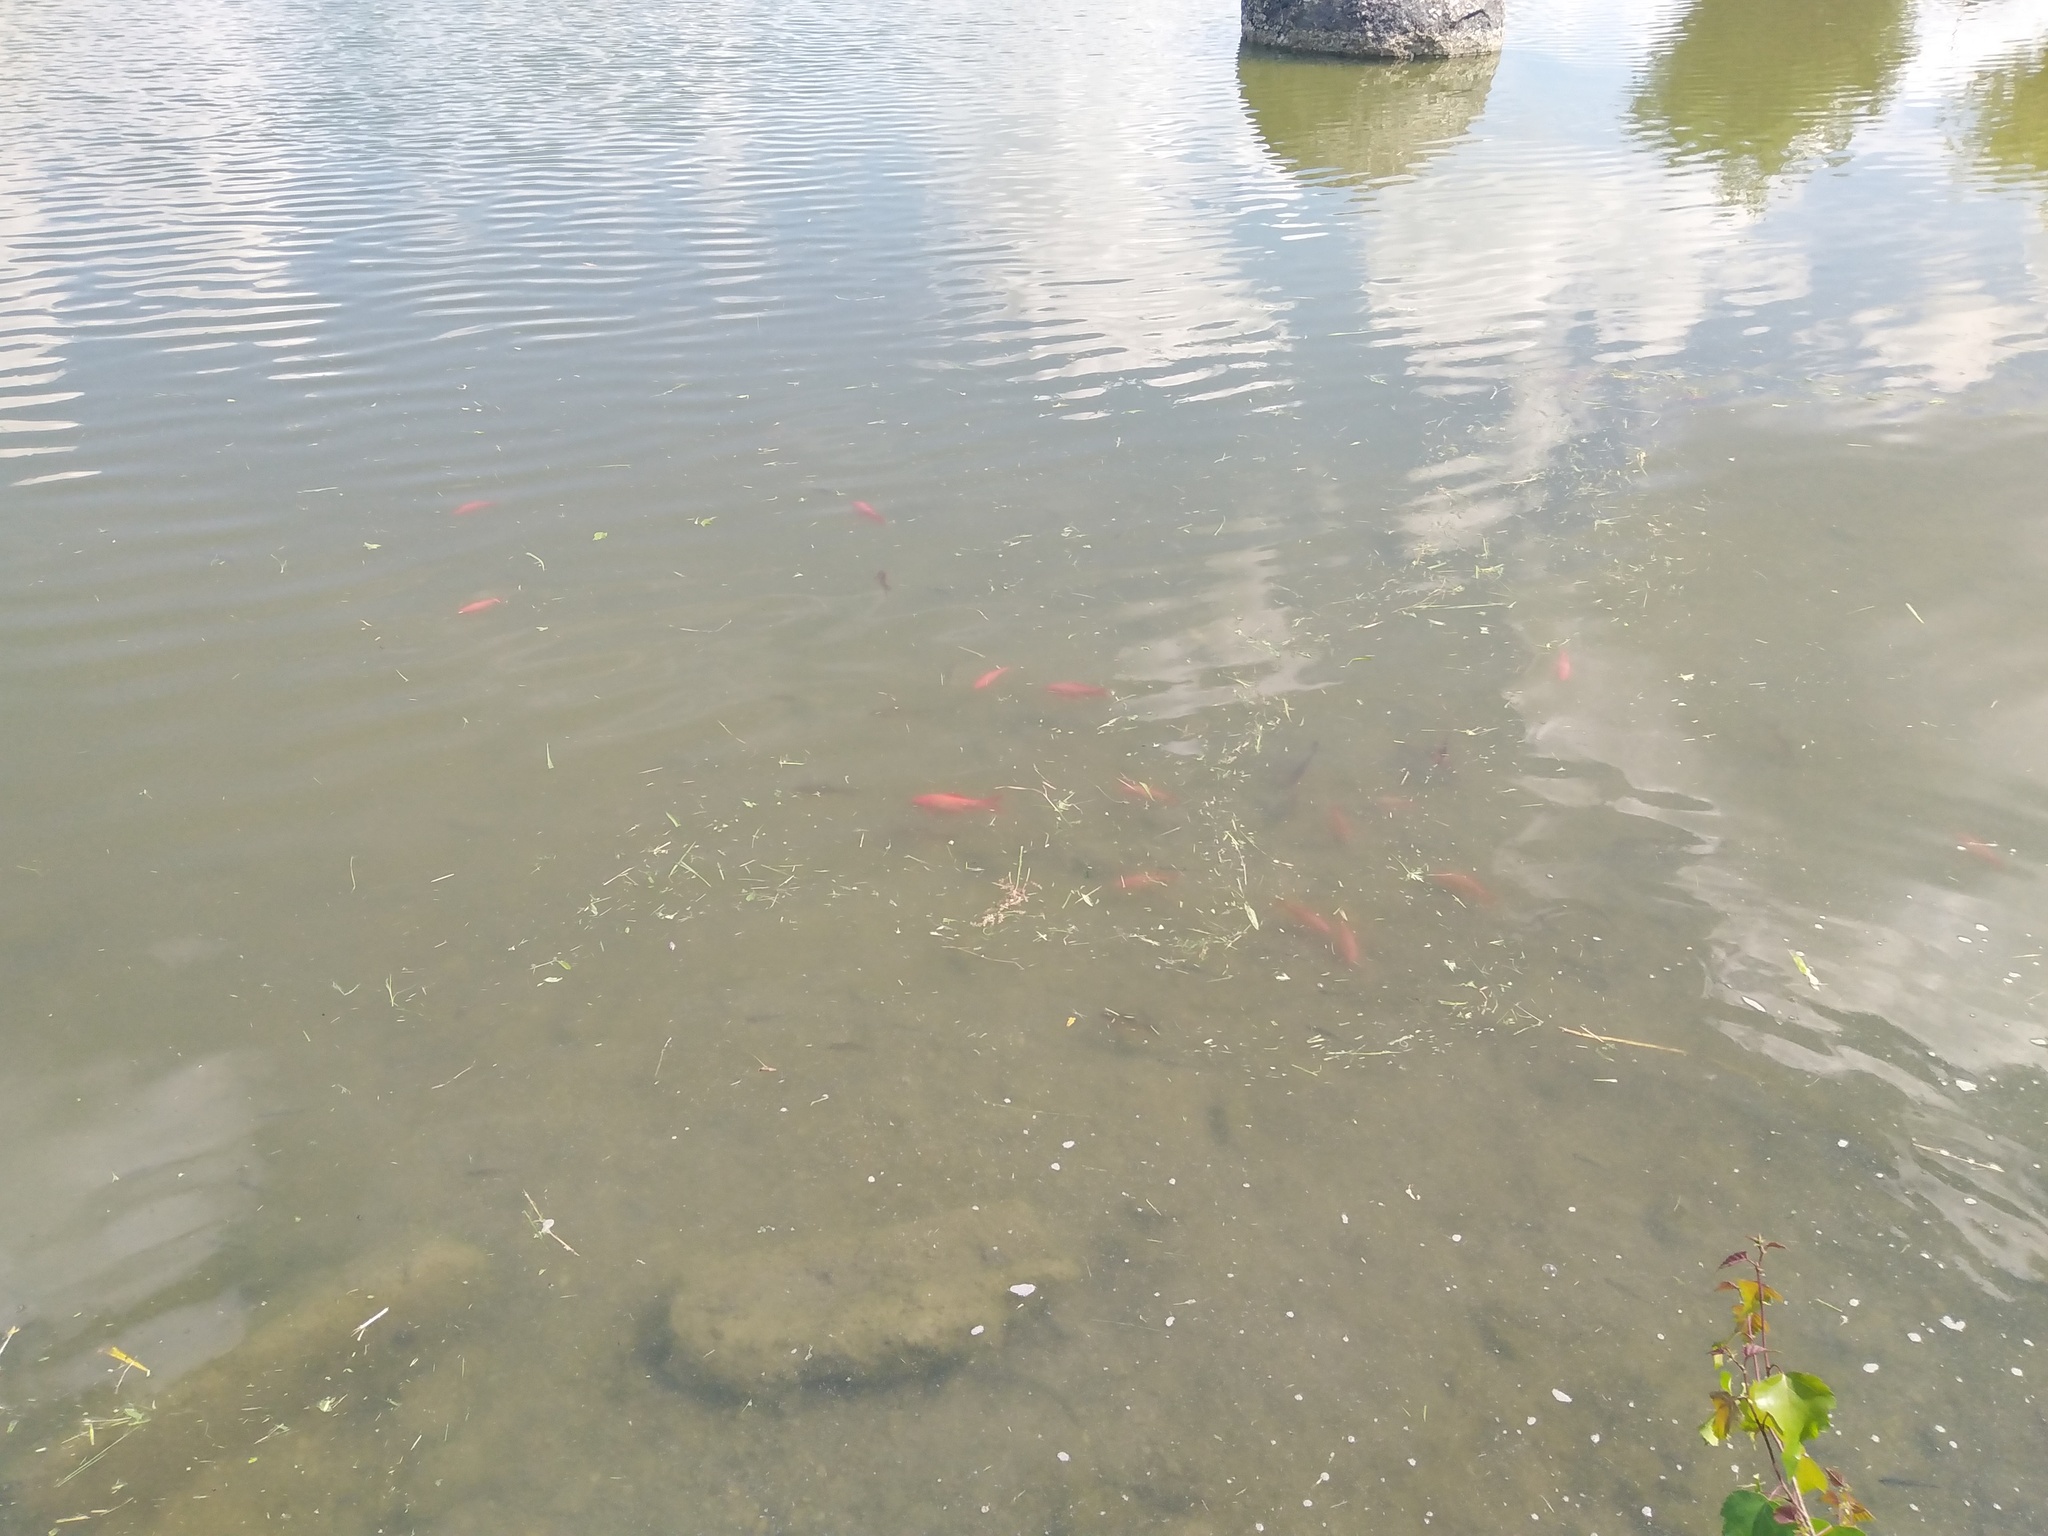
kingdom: Animalia
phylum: Chordata
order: Cypriniformes
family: Cyprinidae
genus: Carassius
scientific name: Carassius auratus
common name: Goldfish
